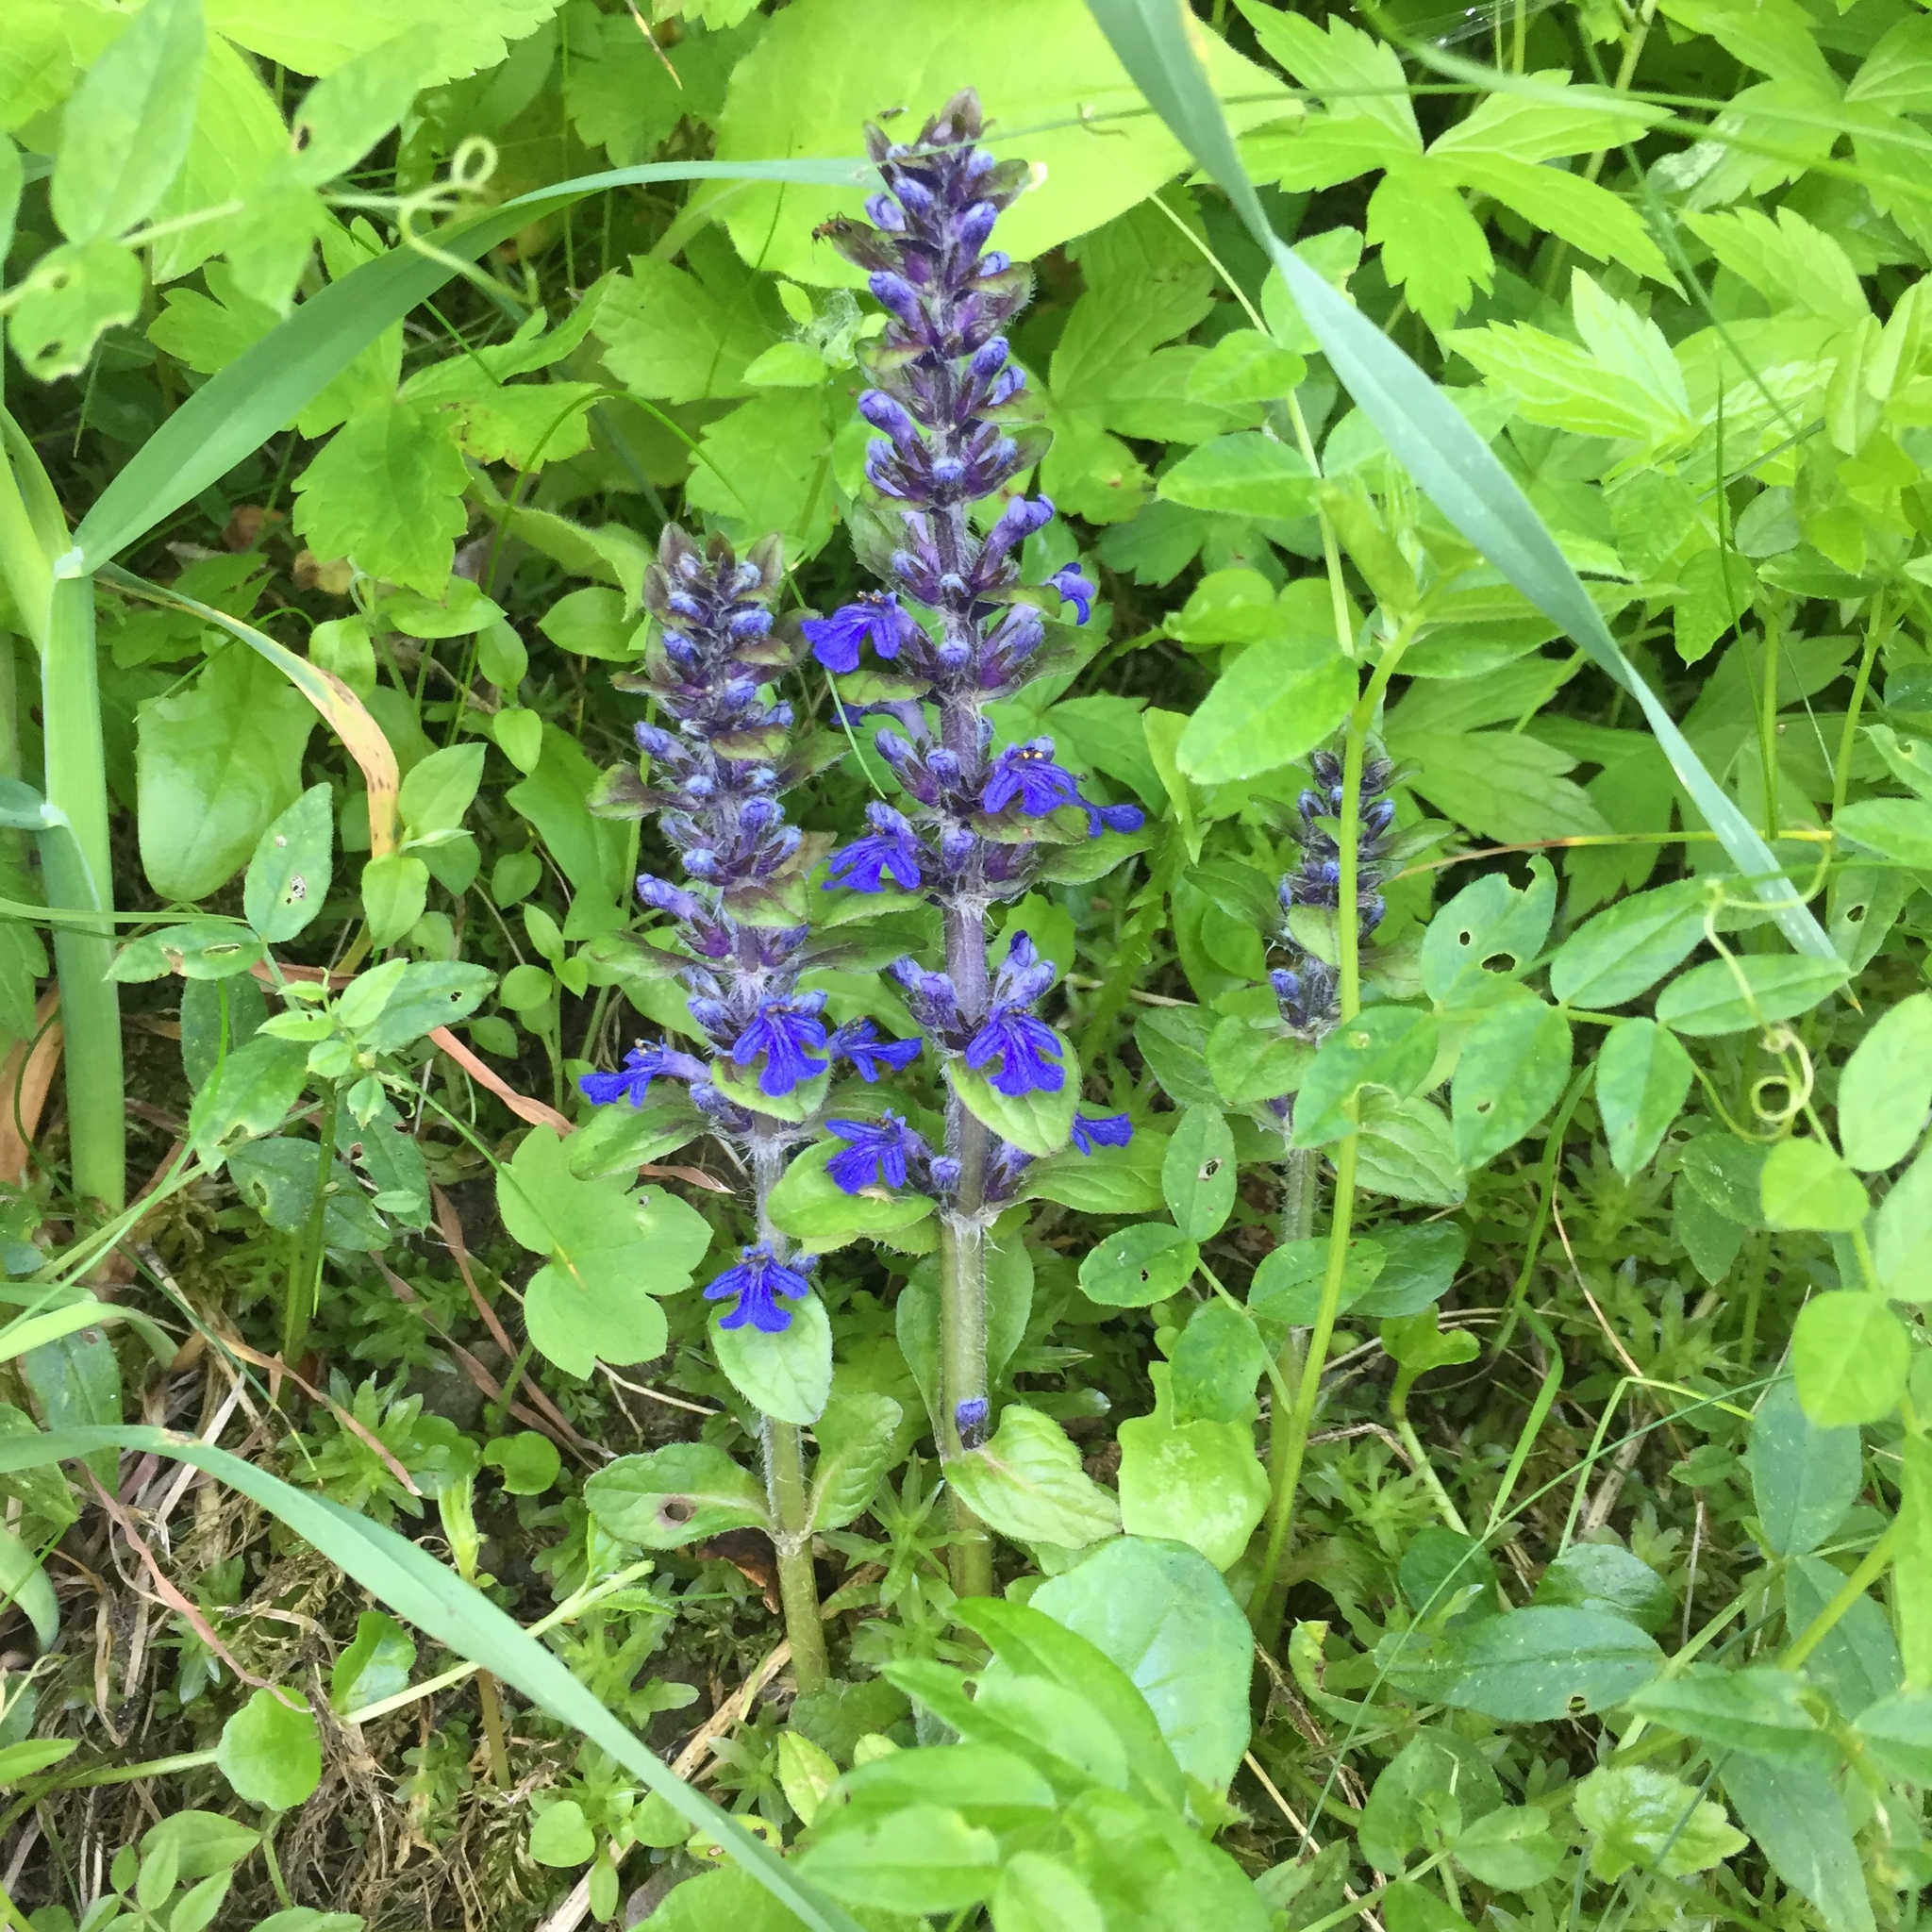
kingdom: Plantae
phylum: Tracheophyta
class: Magnoliopsida
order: Lamiales
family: Lamiaceae
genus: Ajuga
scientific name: Ajuga reptans
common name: Bugle
